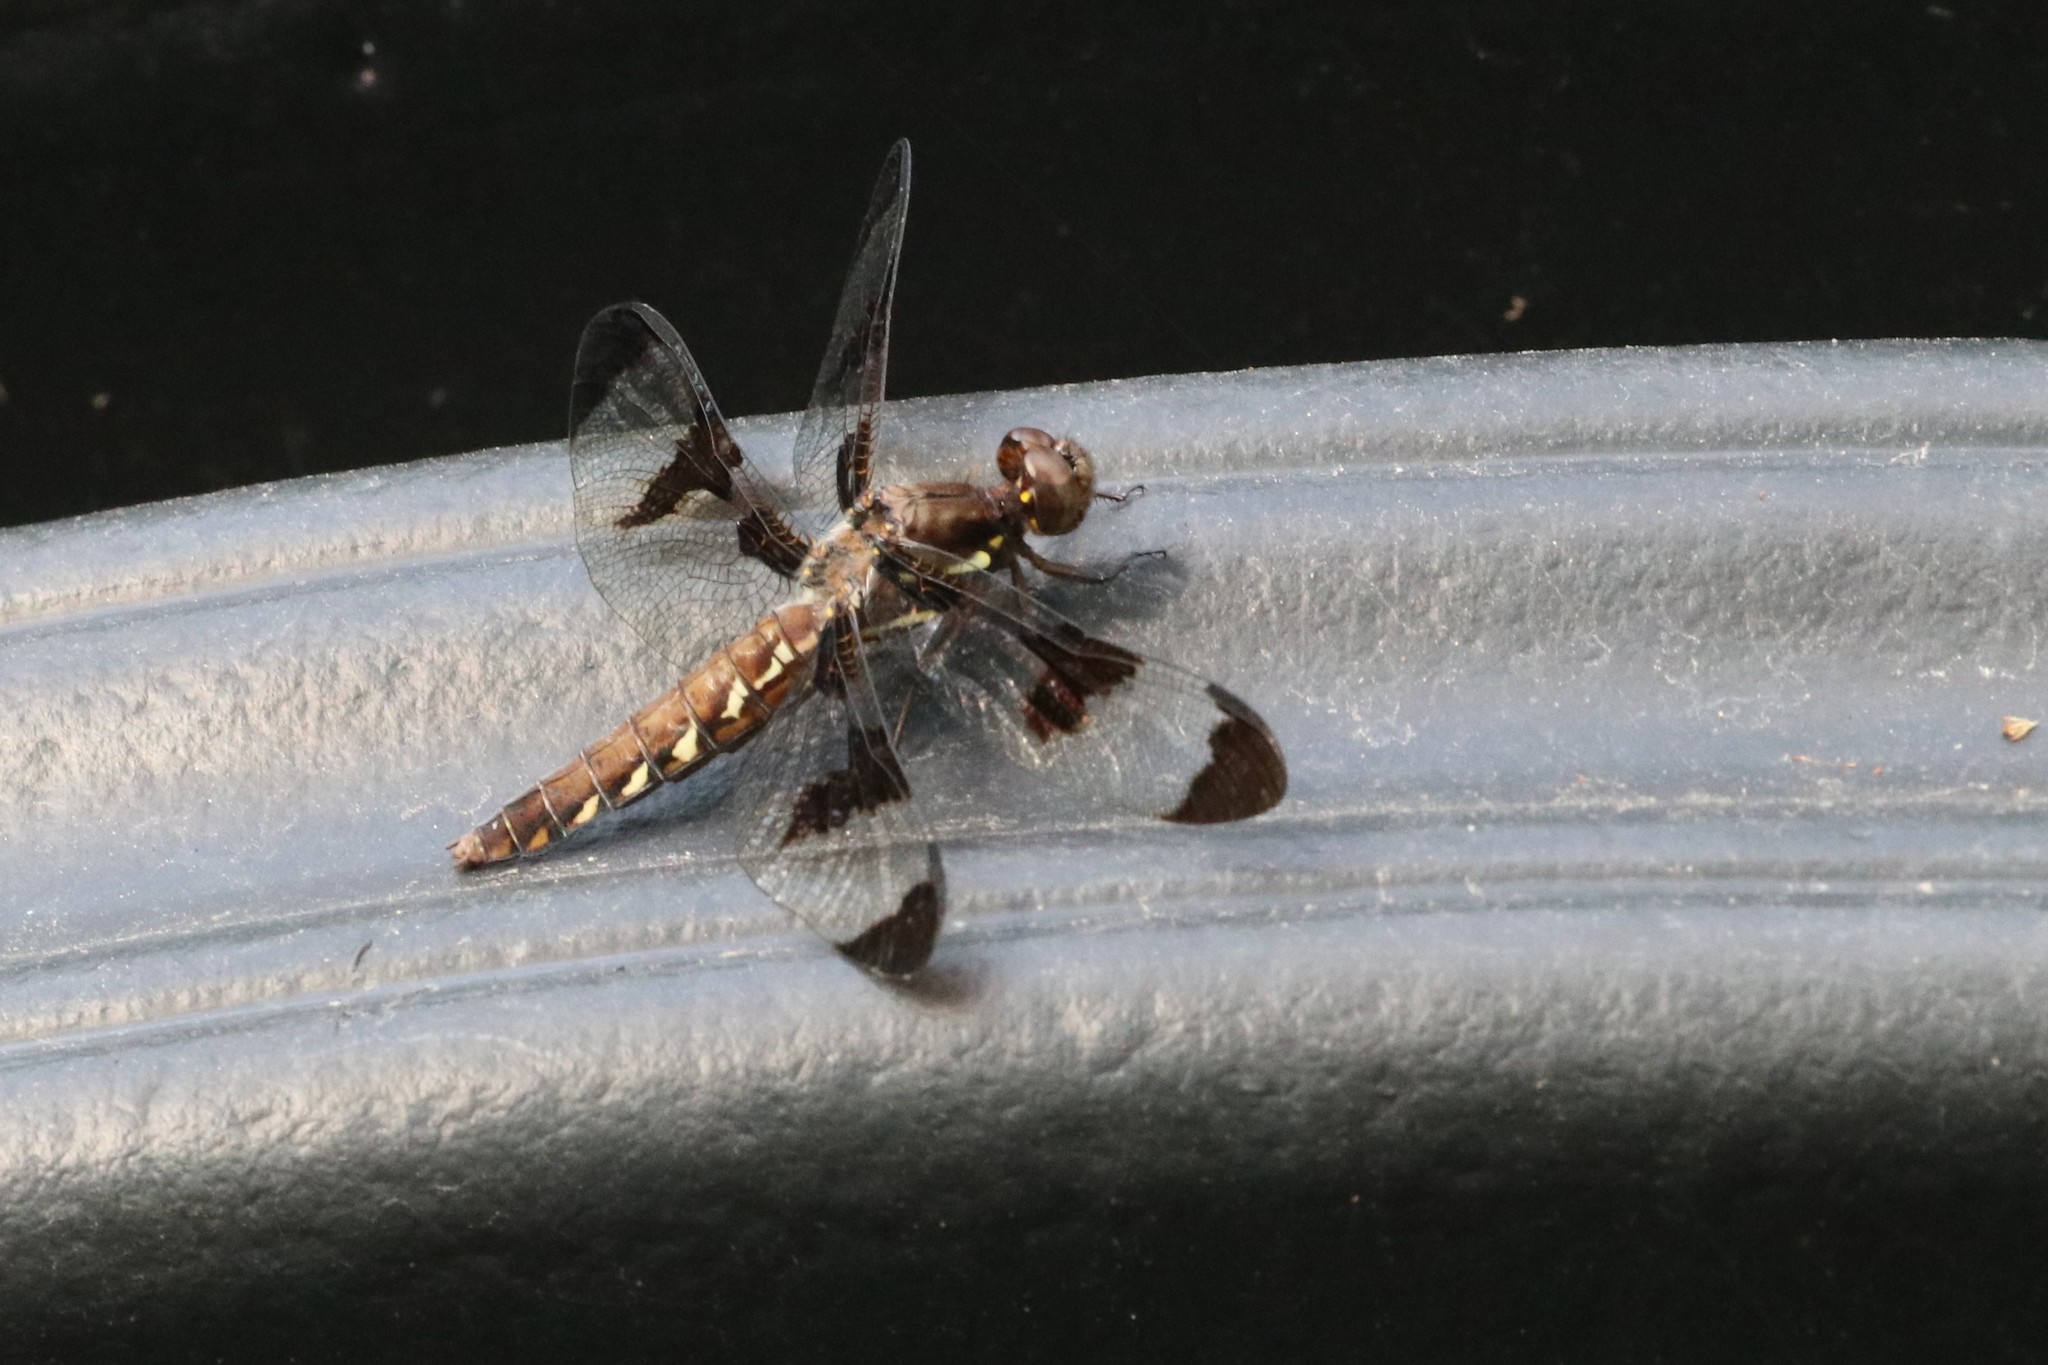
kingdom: Animalia
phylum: Arthropoda
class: Insecta
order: Odonata
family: Libellulidae
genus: Plathemis
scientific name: Plathemis lydia
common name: Common whitetail
